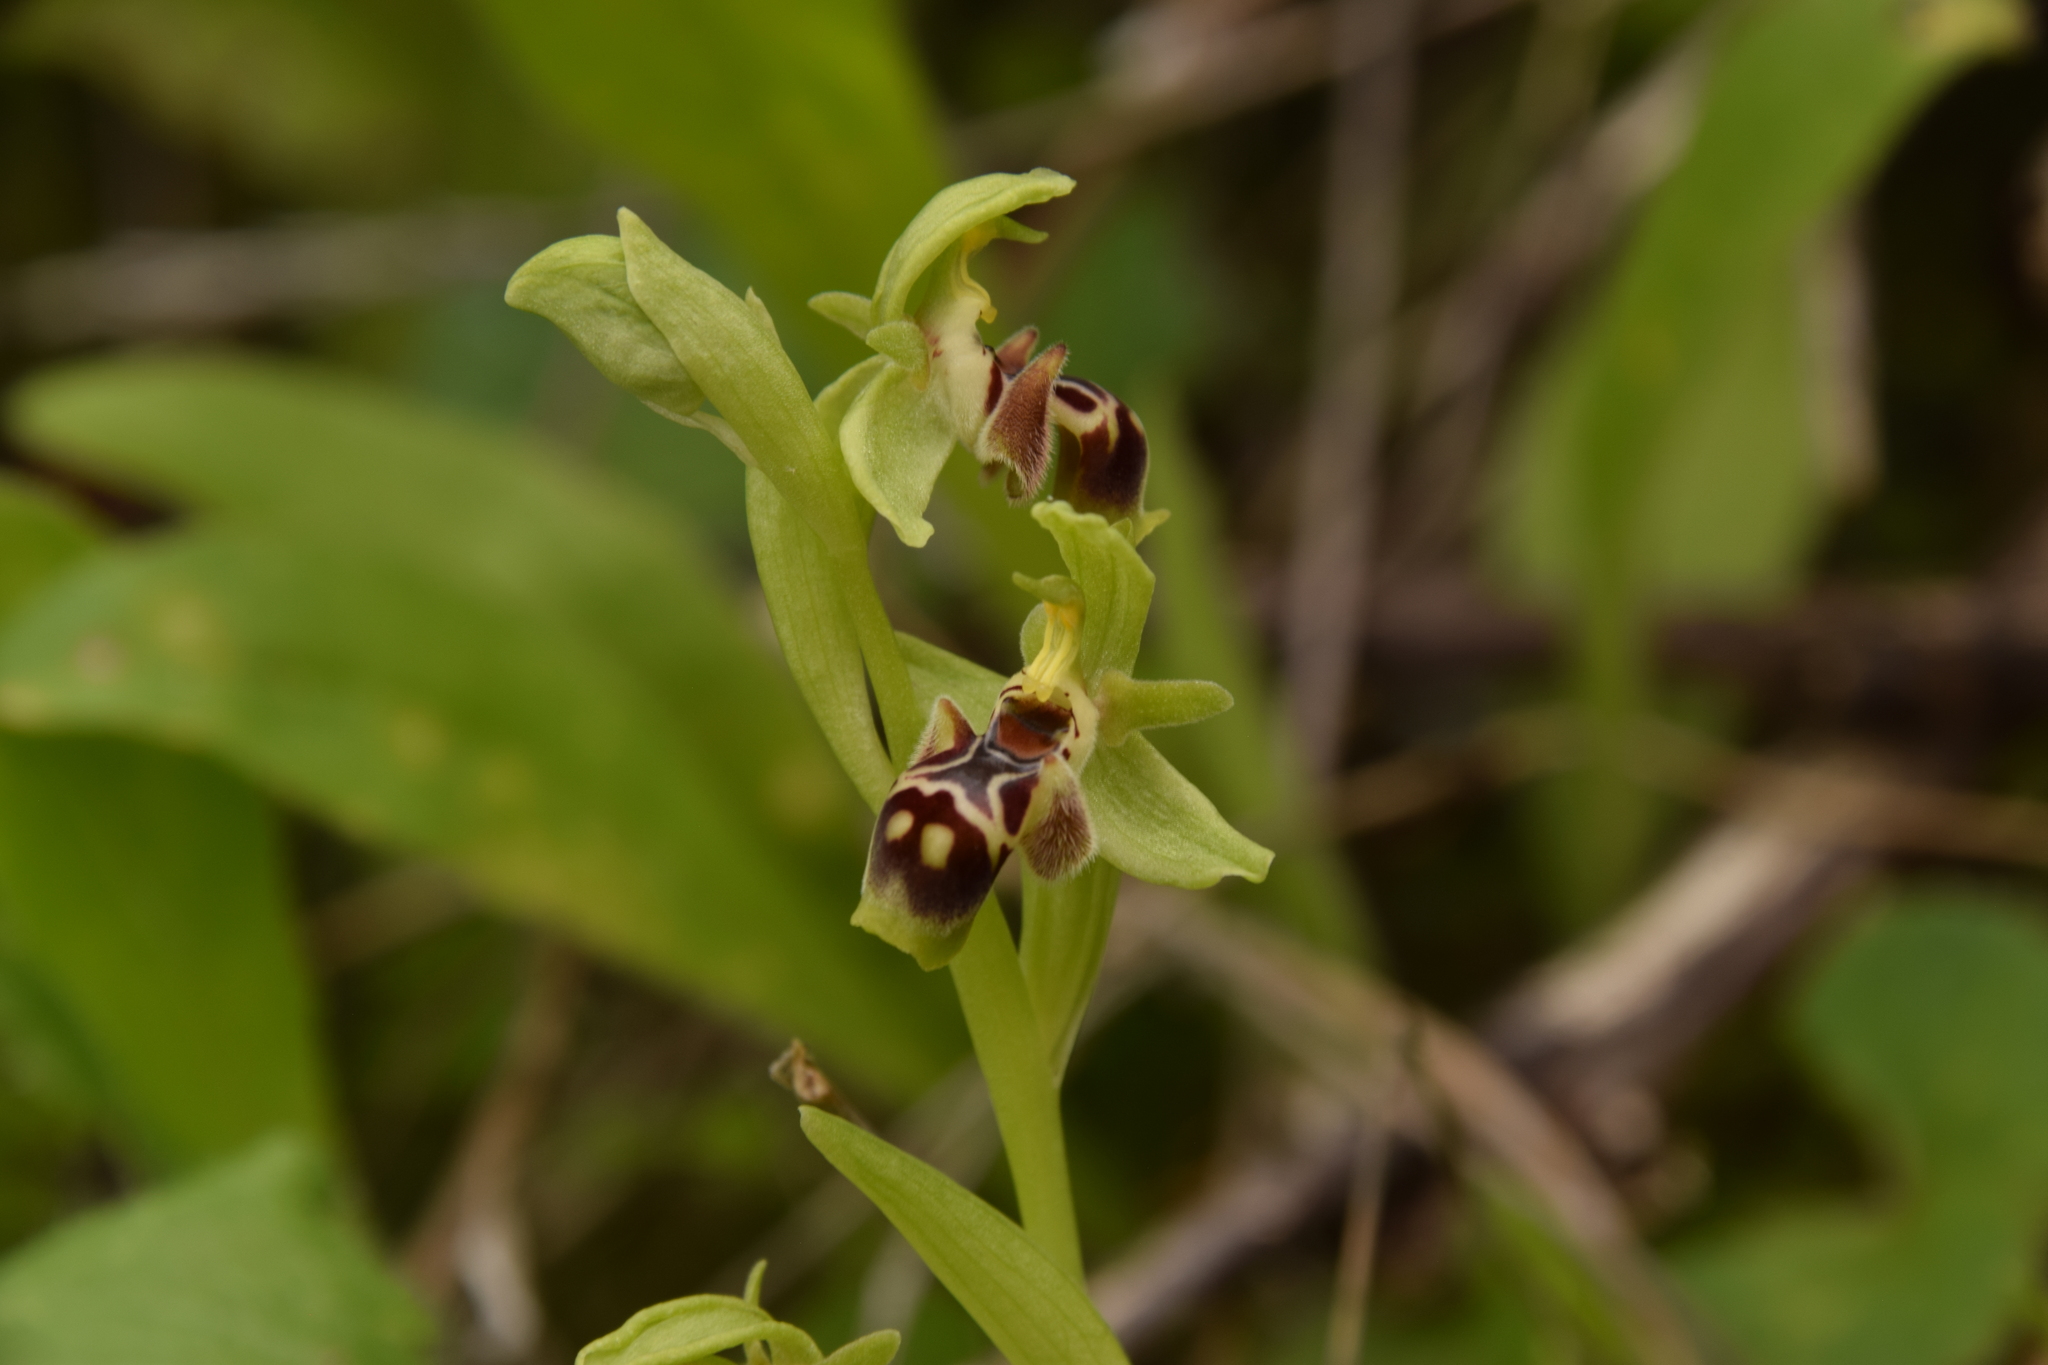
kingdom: Plantae
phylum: Tracheophyta
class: Liliopsida
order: Asparagales
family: Orchidaceae
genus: Ophrys
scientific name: Ophrys umbilicata
